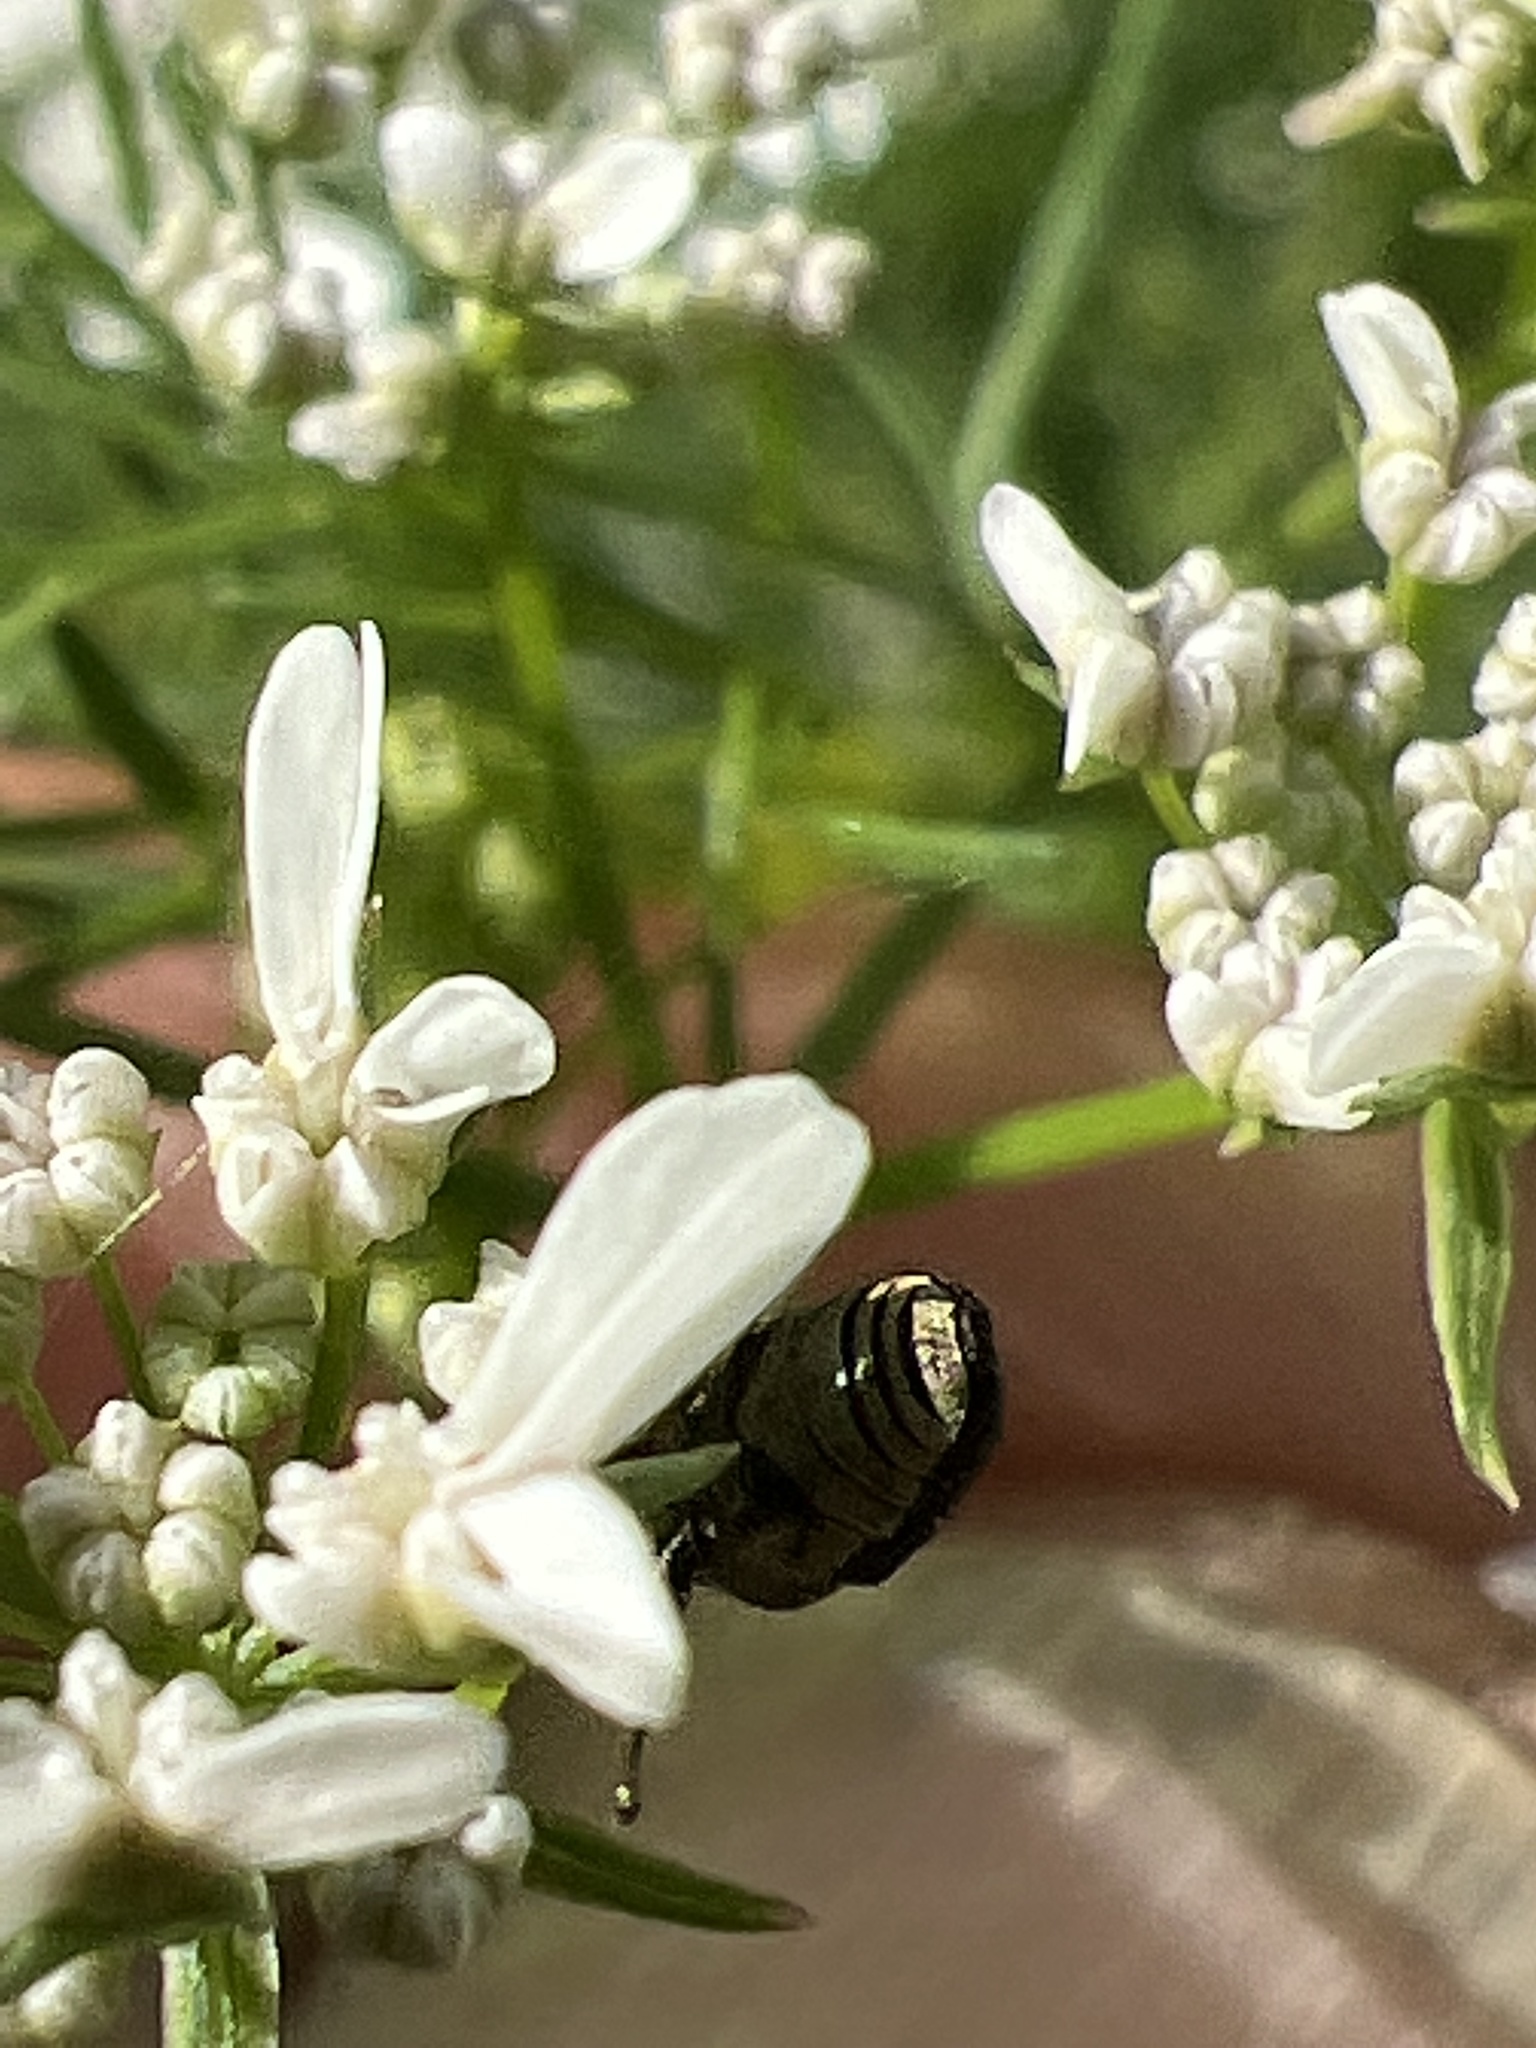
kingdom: Animalia
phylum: Arthropoda
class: Insecta
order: Coleoptera
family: Curculionidae
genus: Odontocorynus
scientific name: Odontocorynus salebrosus
